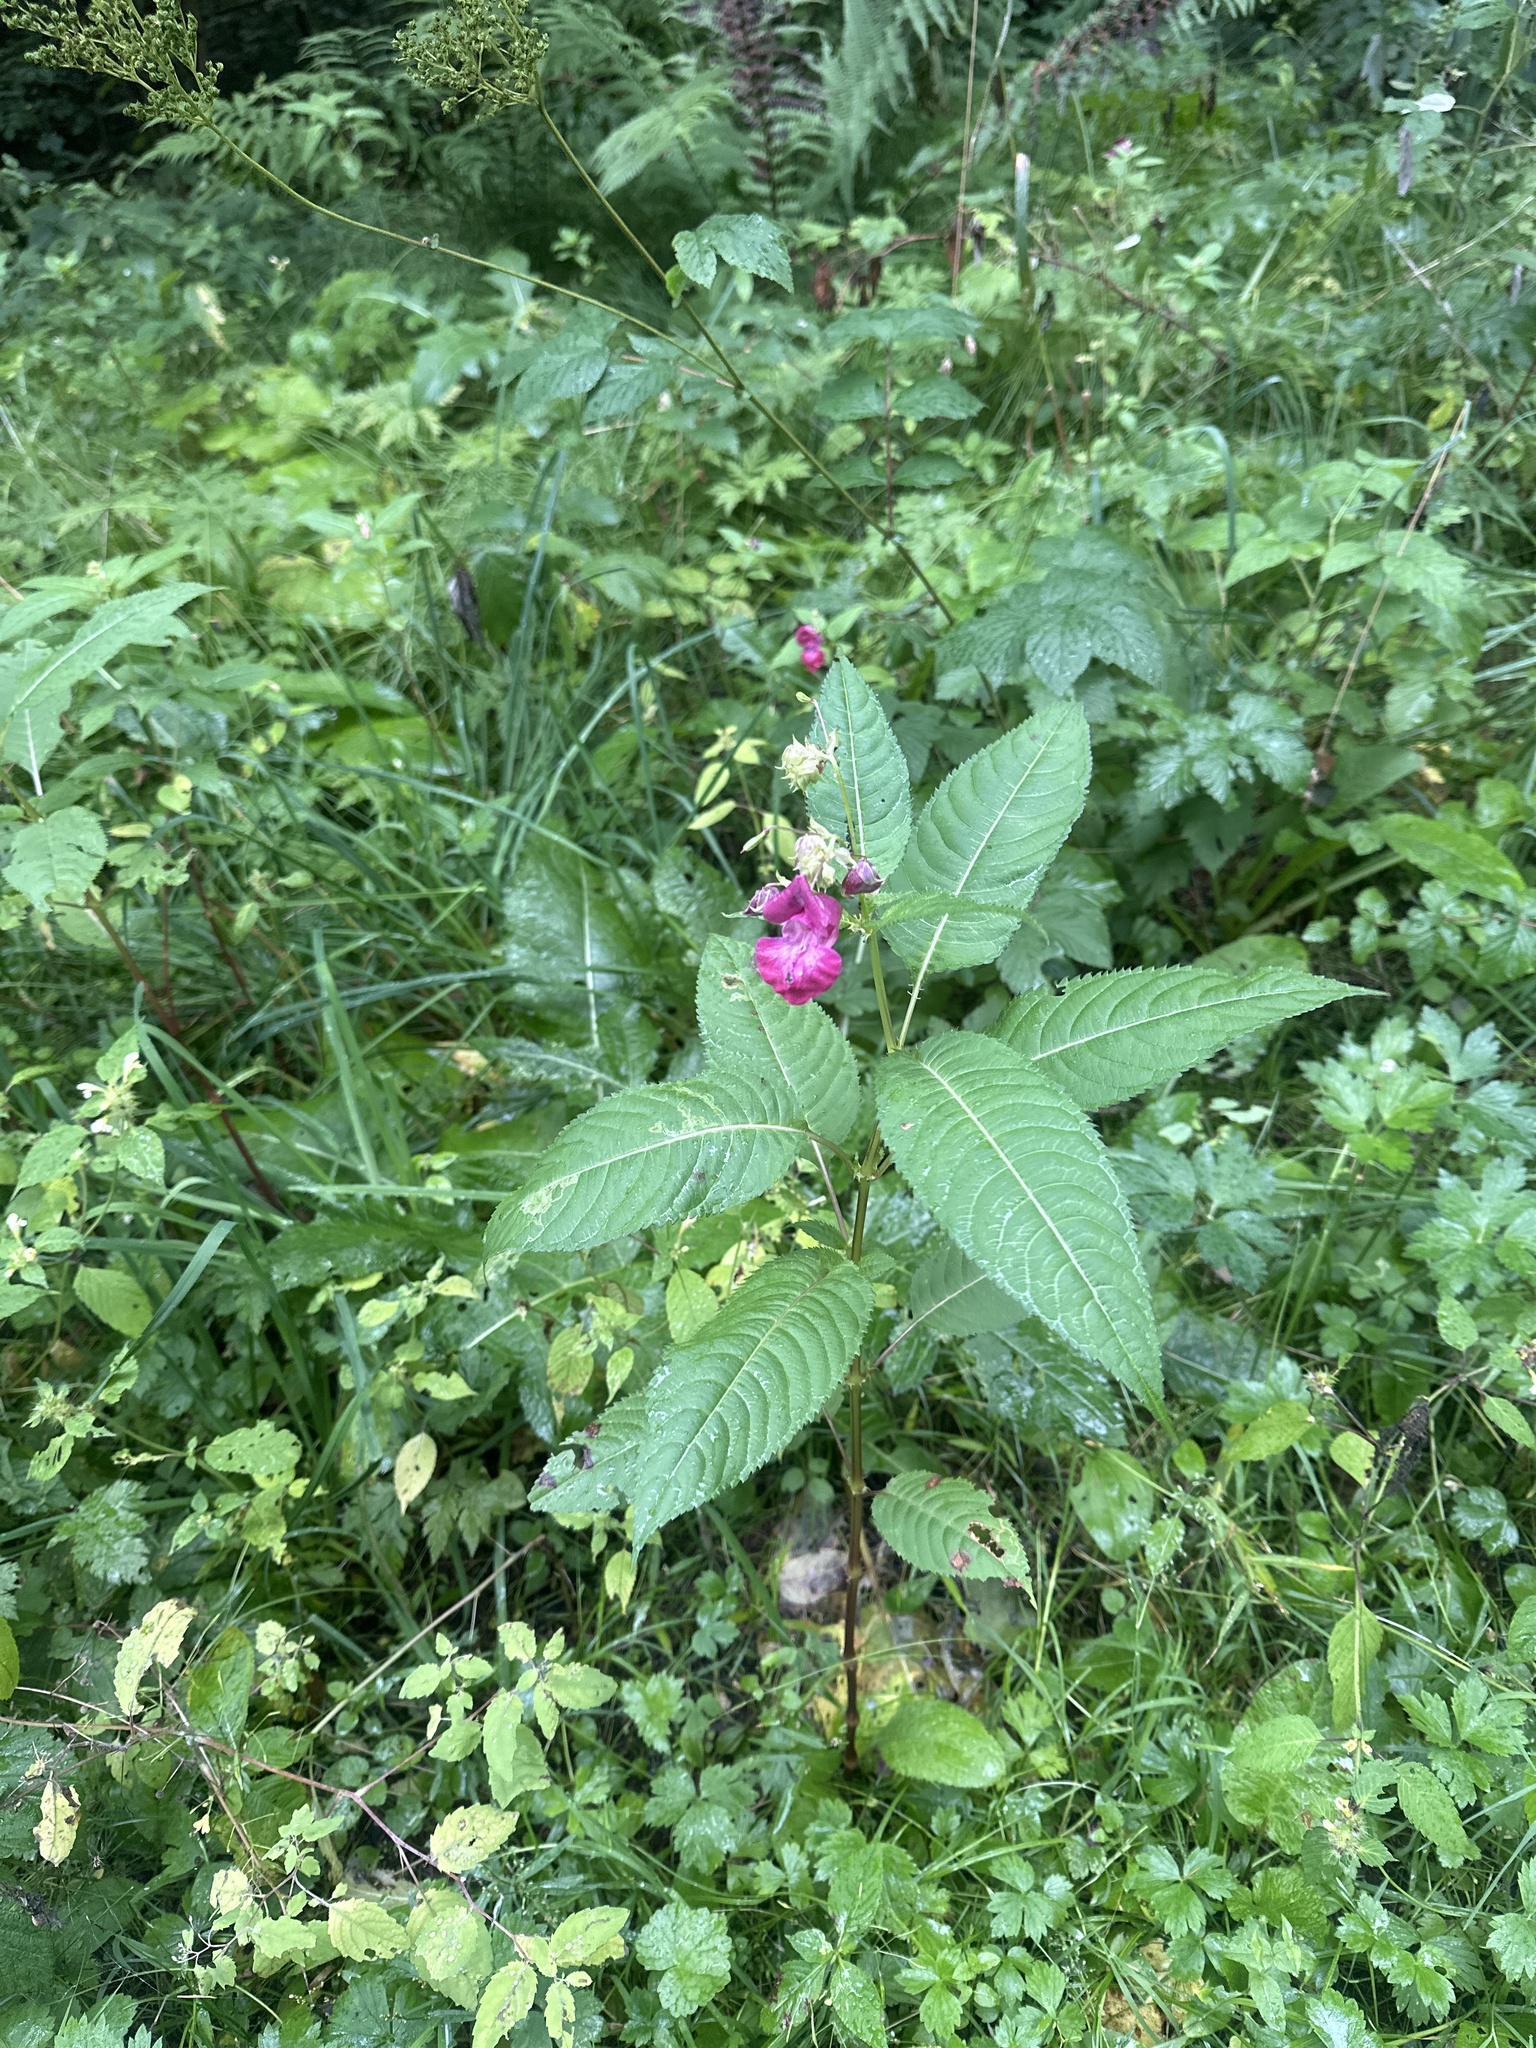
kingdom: Plantae
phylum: Tracheophyta
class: Magnoliopsida
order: Ericales
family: Balsaminaceae
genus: Impatiens
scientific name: Impatiens glandulifera
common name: Himalayan balsam
